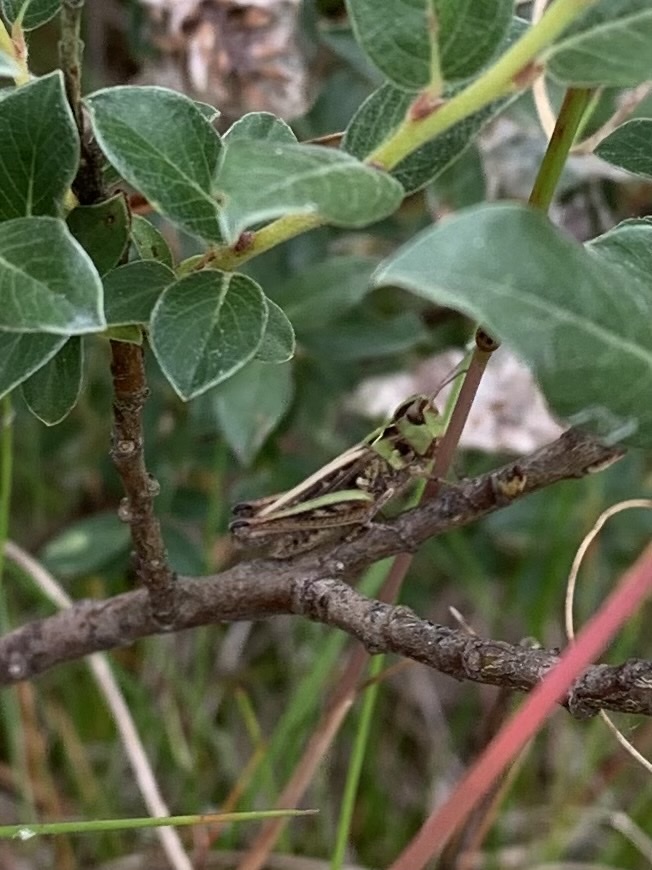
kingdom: Animalia
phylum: Arthropoda
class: Insecta
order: Orthoptera
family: Acrididae
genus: Myrmeleotettix
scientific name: Myrmeleotettix maculatus
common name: Mottled grasshopper
